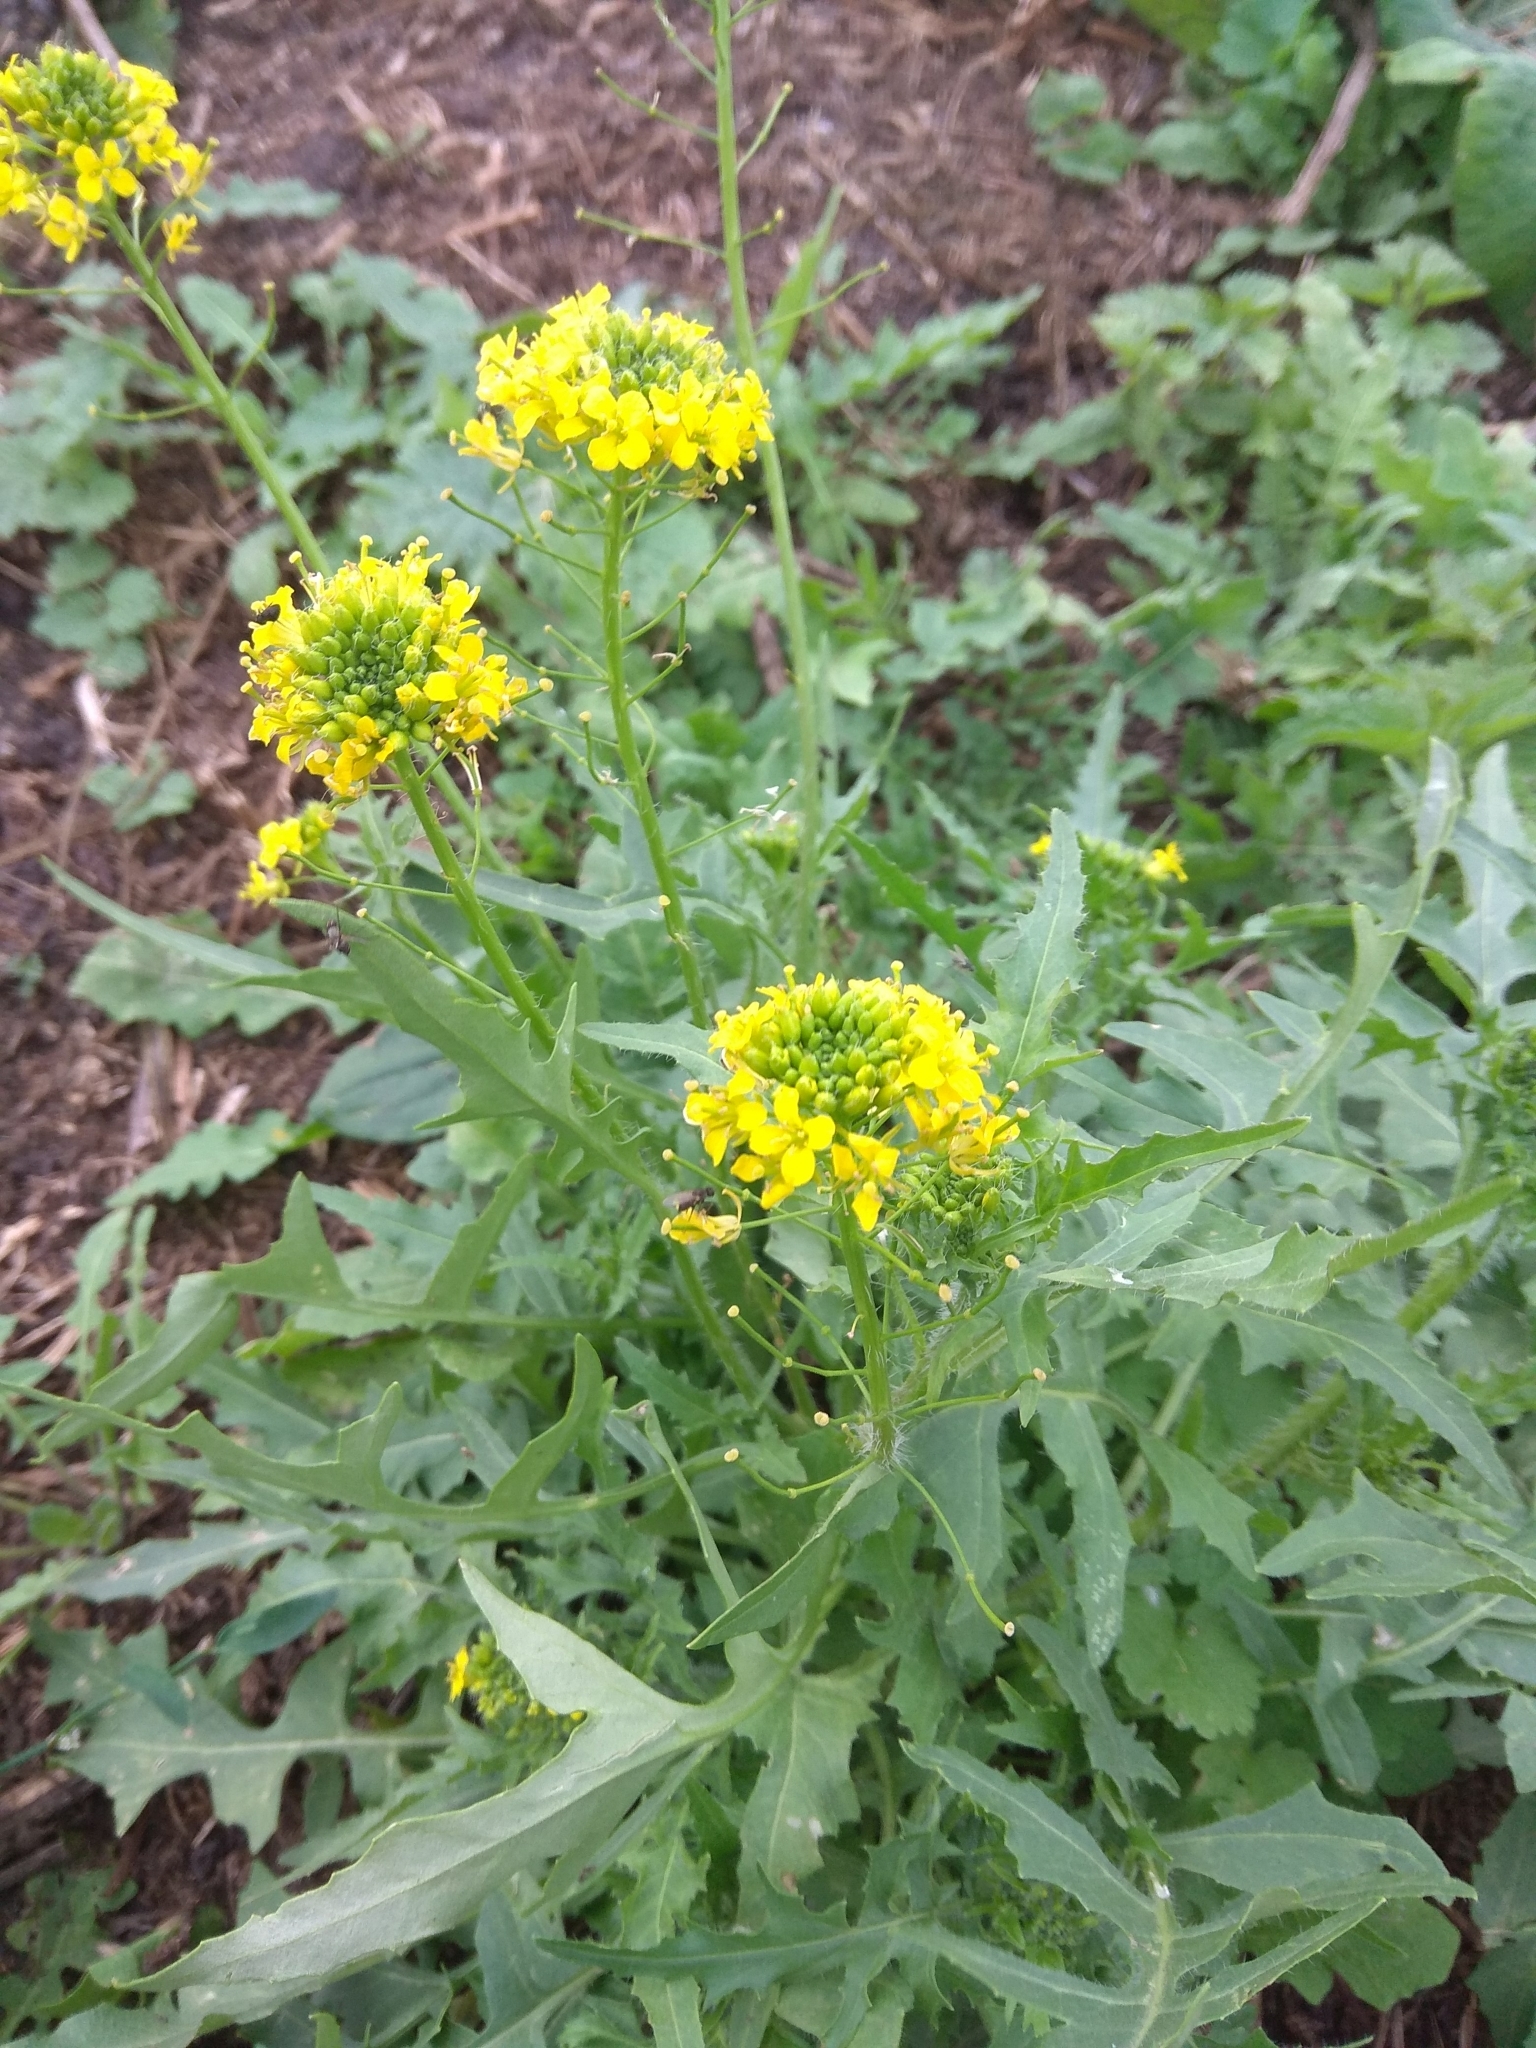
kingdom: Plantae
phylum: Tracheophyta
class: Magnoliopsida
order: Brassicales
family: Brassicaceae
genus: Sisymbrium
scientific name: Sisymbrium loeselii
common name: False london-rocket
